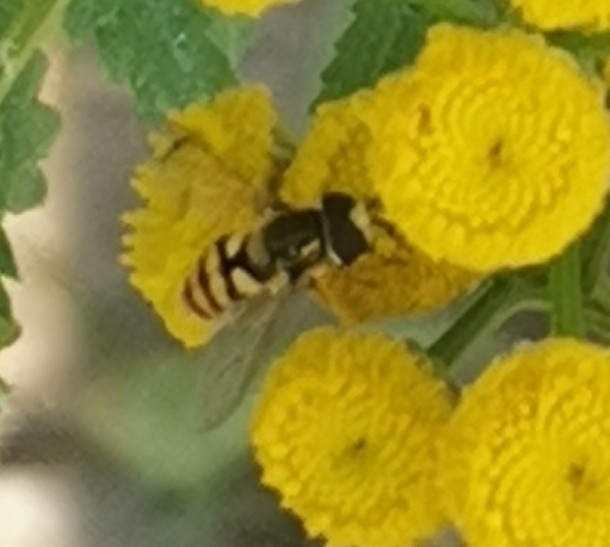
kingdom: Animalia
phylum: Arthropoda
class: Insecta
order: Diptera
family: Syrphidae
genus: Eupeodes
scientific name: Eupeodes corollae
